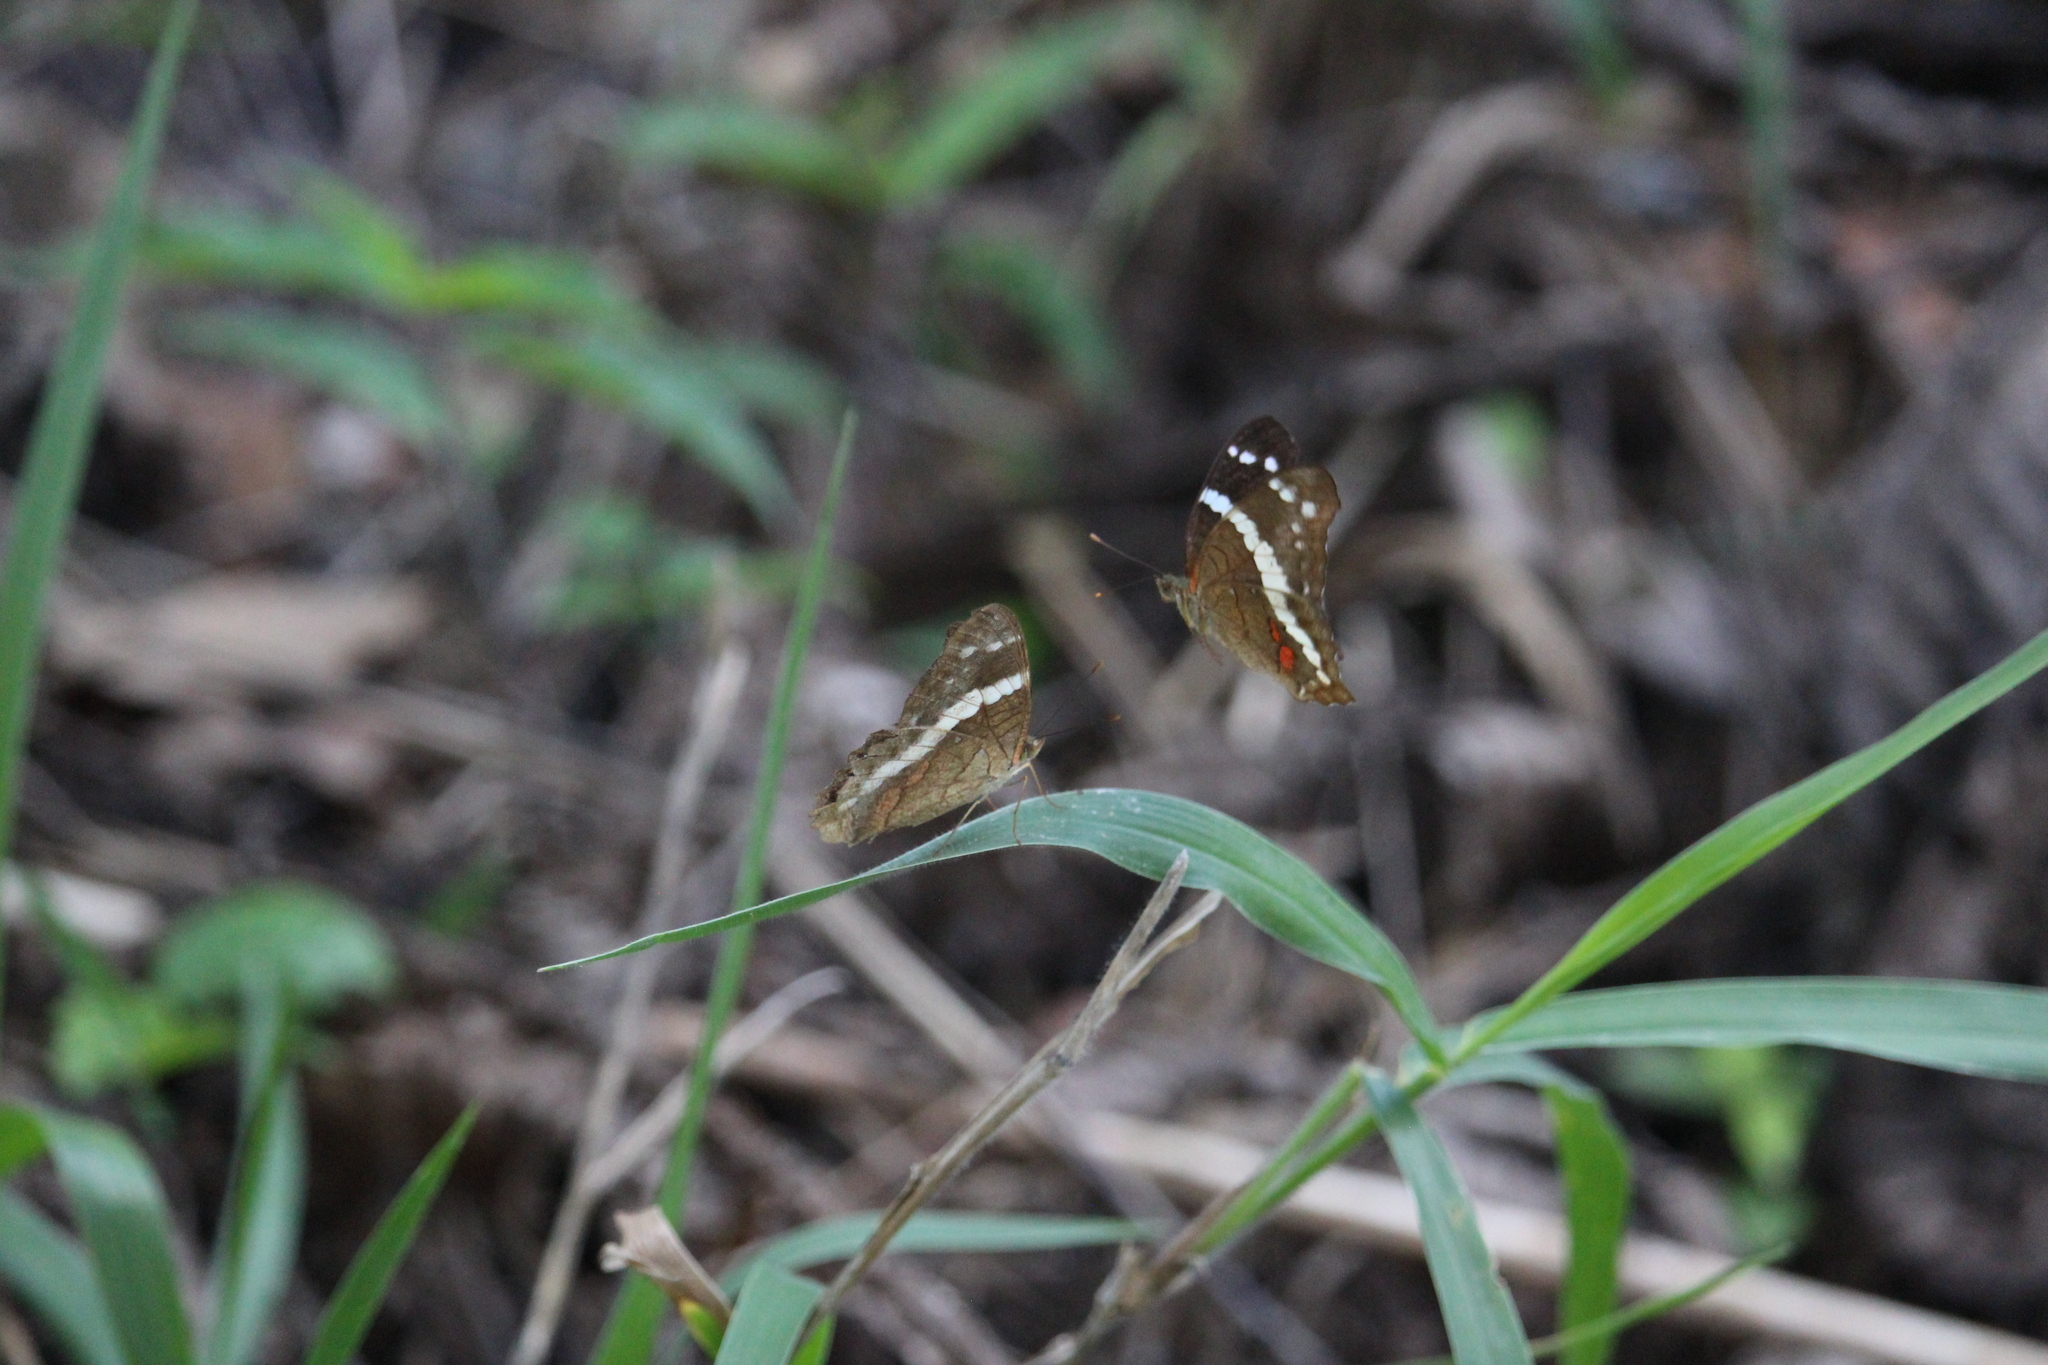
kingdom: Animalia
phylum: Arthropoda
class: Insecta
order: Lepidoptera
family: Nymphalidae
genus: Anartia
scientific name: Anartia fatima
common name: Banded peacock
